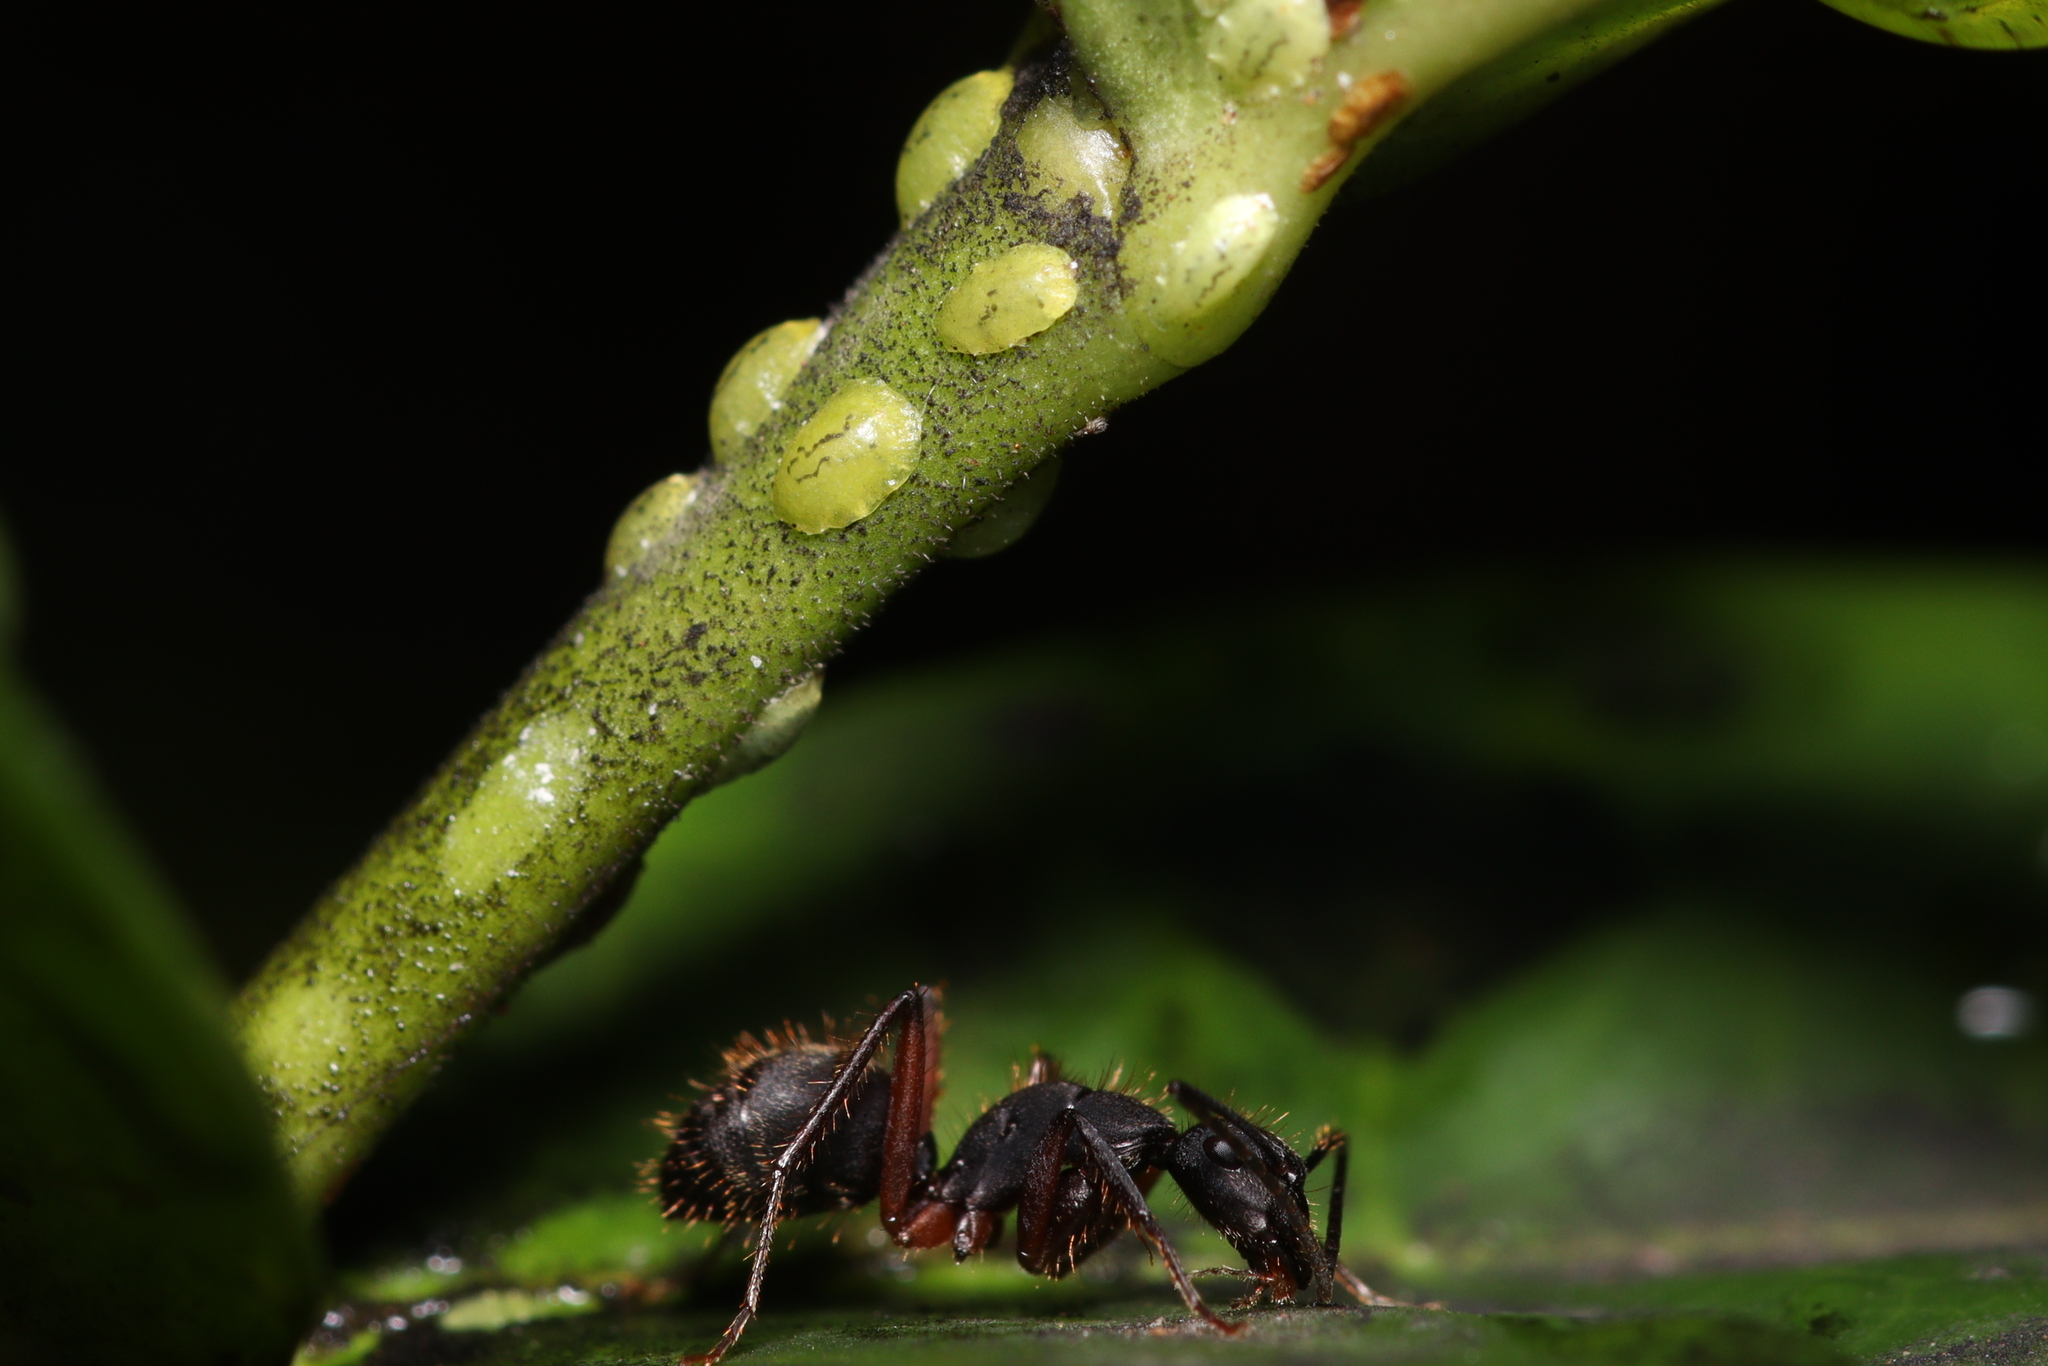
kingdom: Animalia
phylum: Arthropoda
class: Insecta
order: Hymenoptera
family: Formicidae
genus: Camponotus
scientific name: Camponotus rufipes
